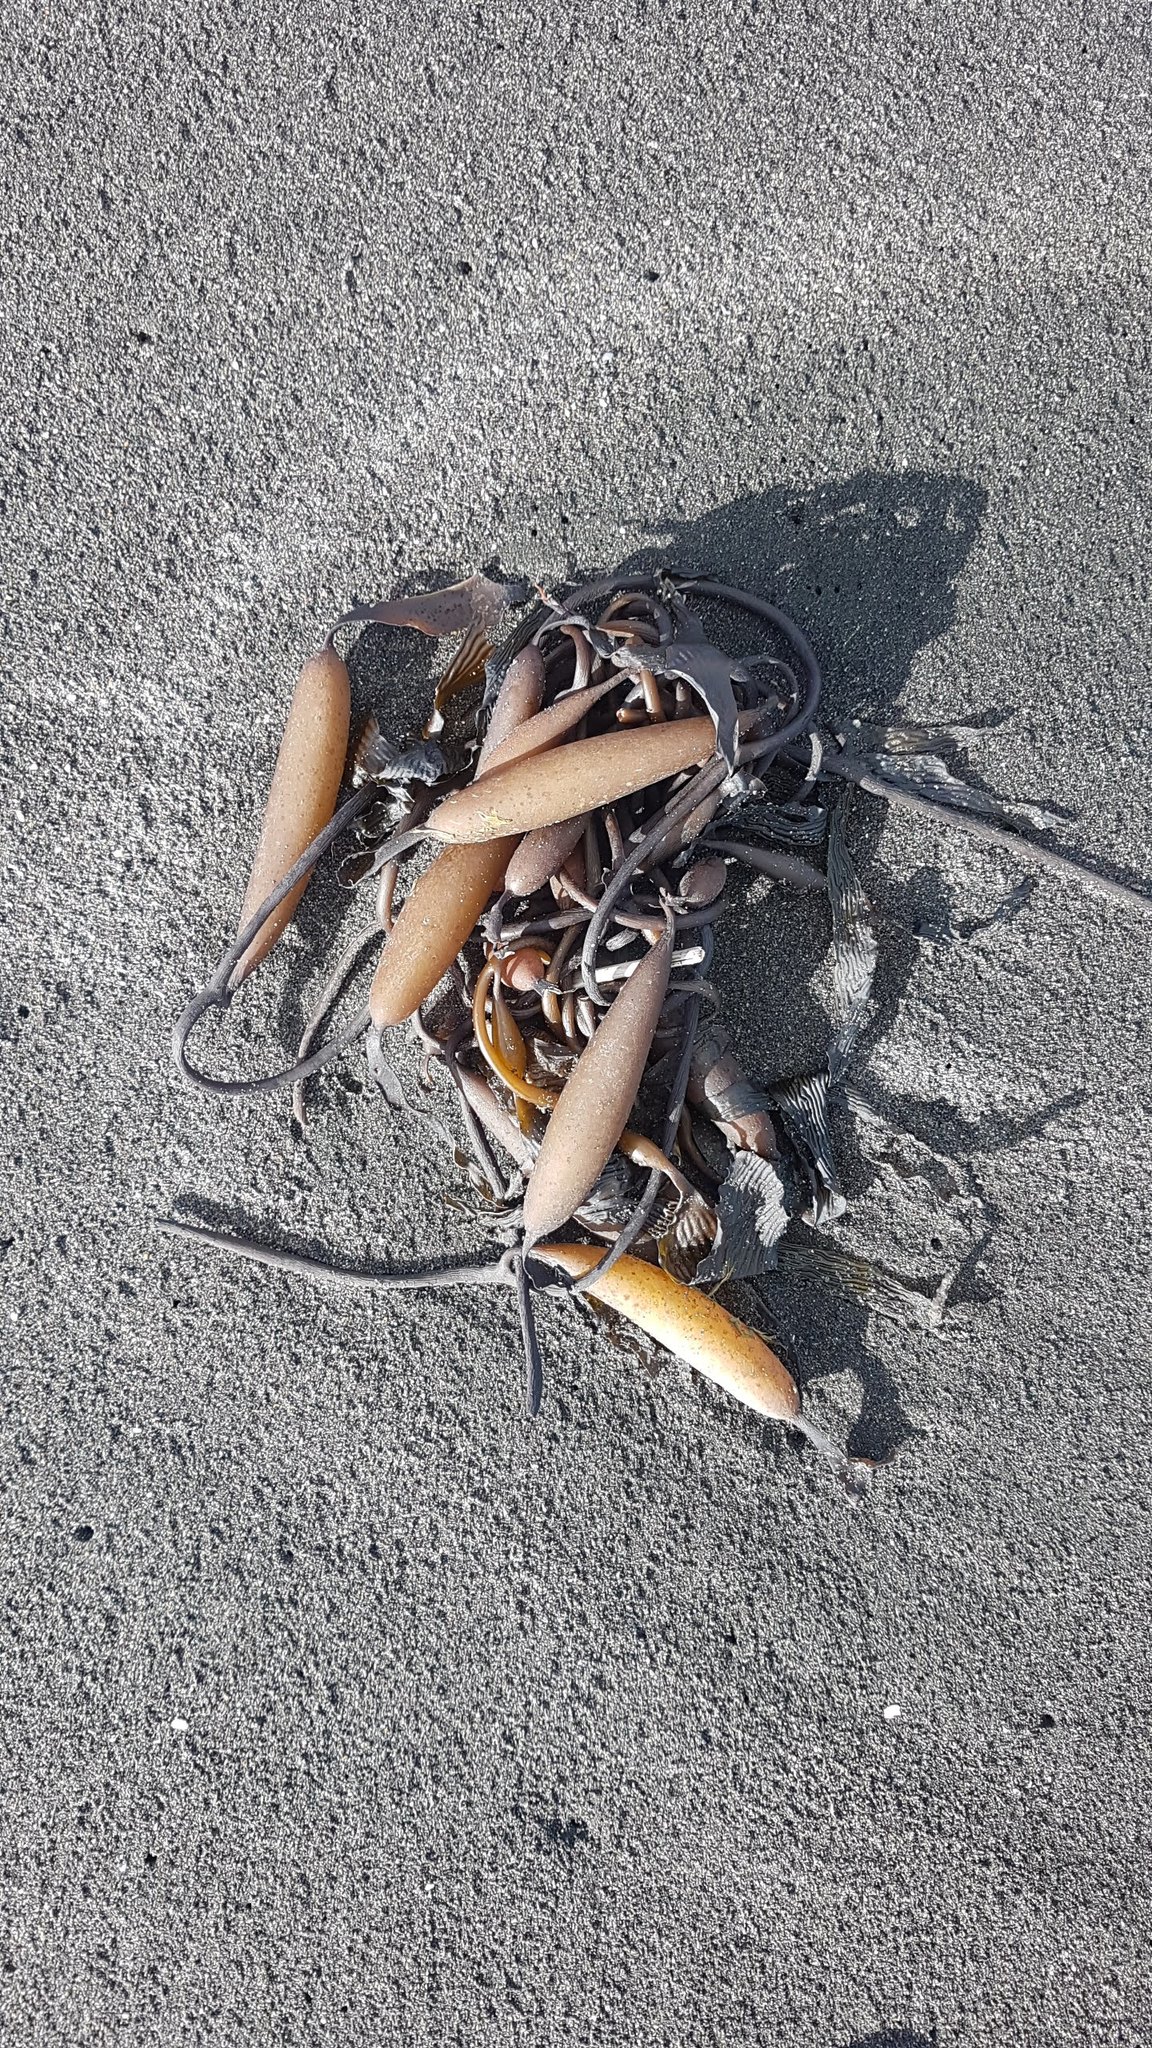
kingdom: Chromista
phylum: Ochrophyta
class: Phaeophyceae
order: Laminariales
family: Laminariaceae
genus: Macrocystis
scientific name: Macrocystis pyrifera
